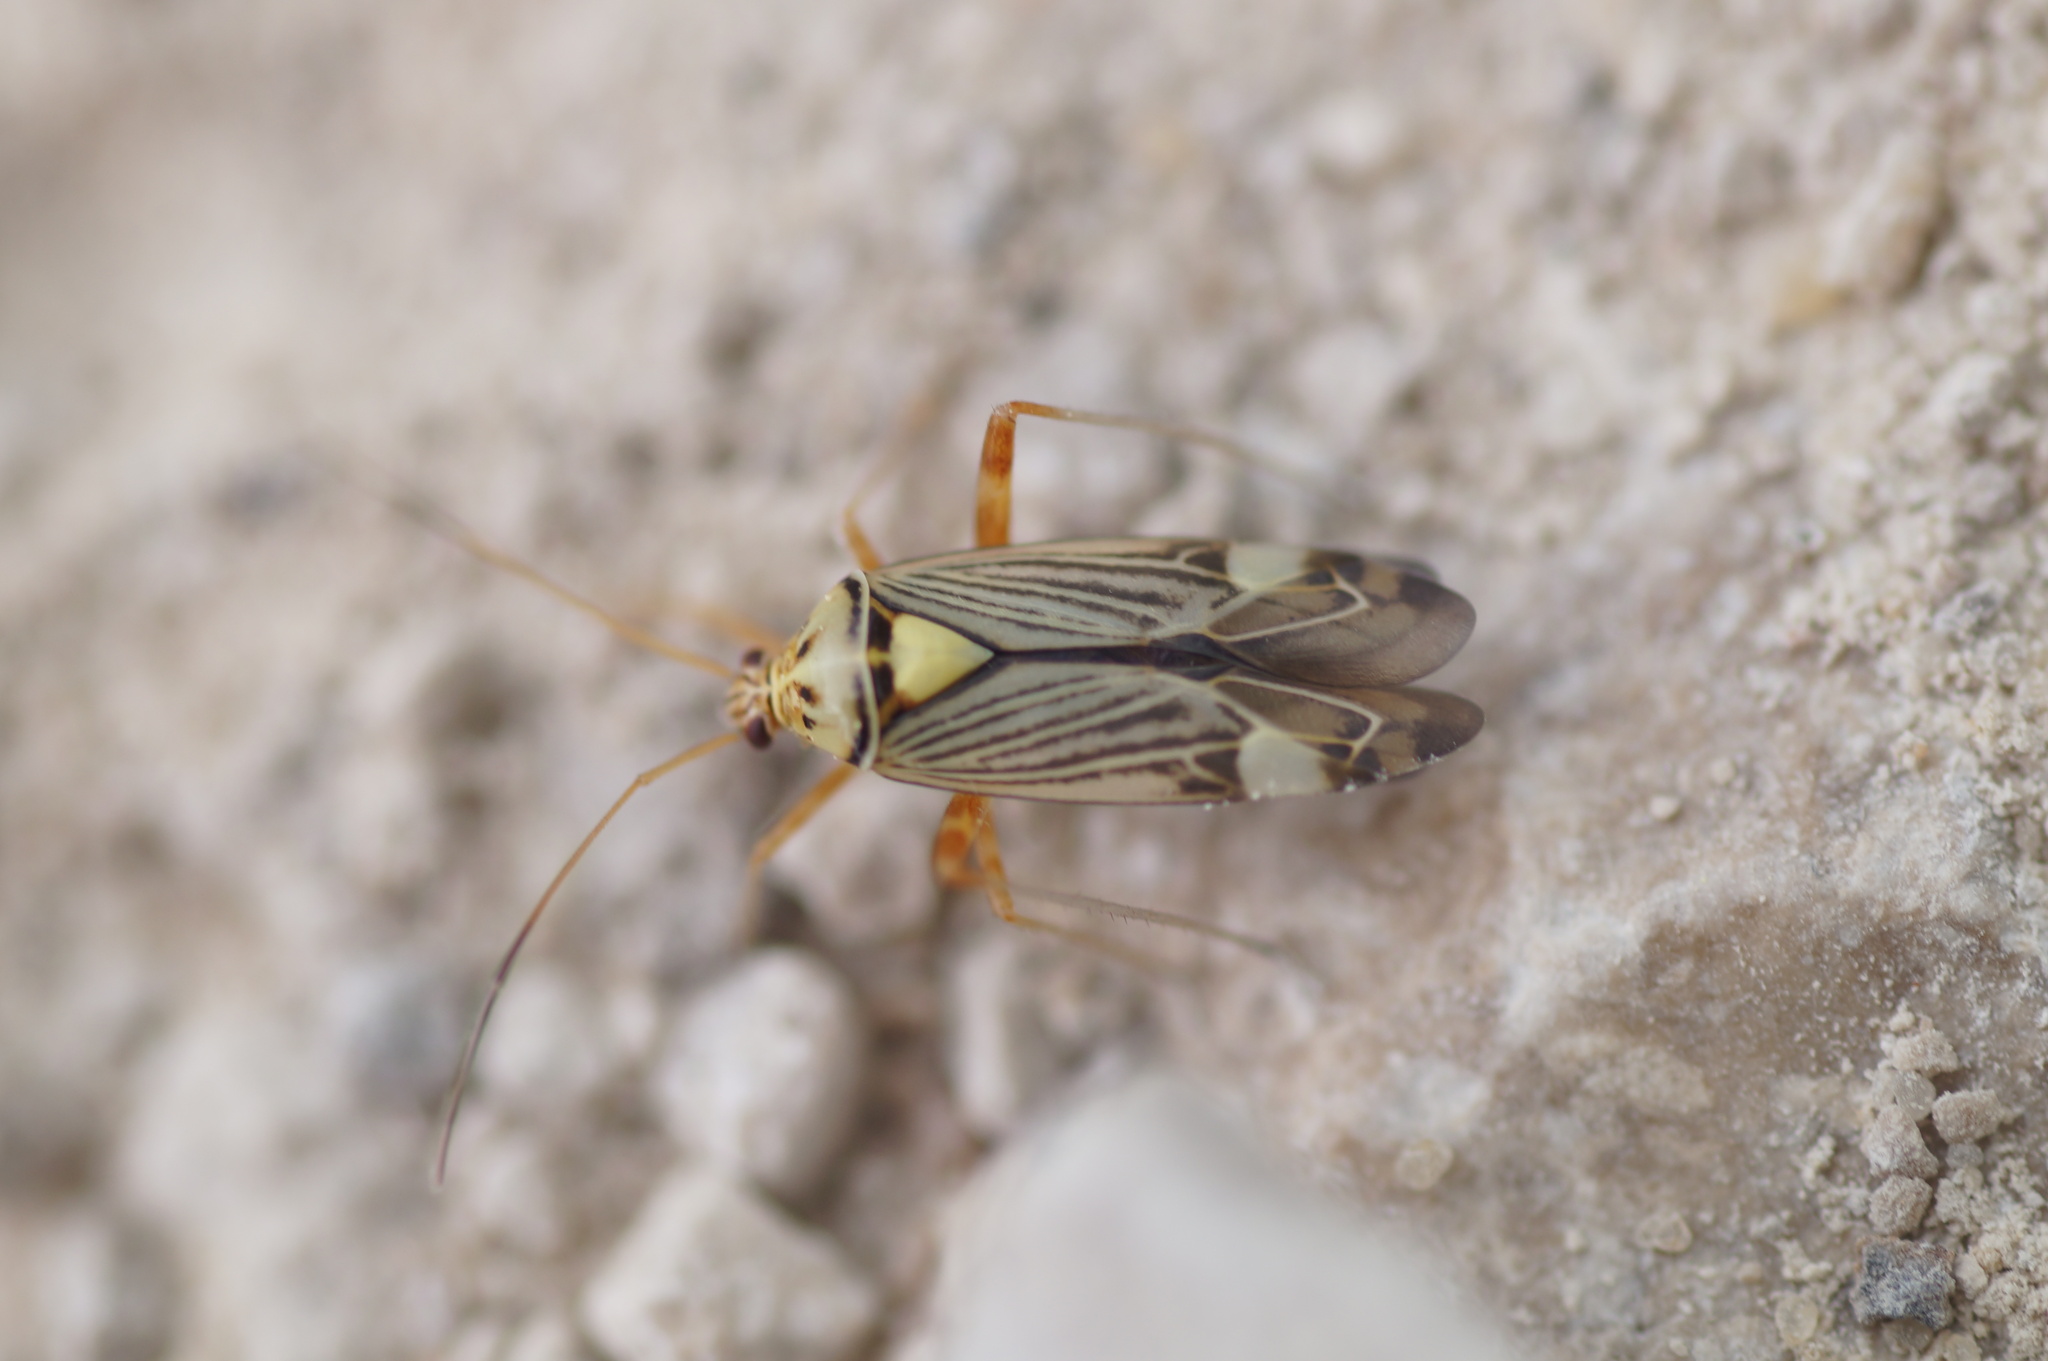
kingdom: Animalia
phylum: Arthropoda
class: Insecta
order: Hemiptera
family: Miridae
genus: Rhabdomiris
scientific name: Rhabdomiris striatellus
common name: Plant bug
